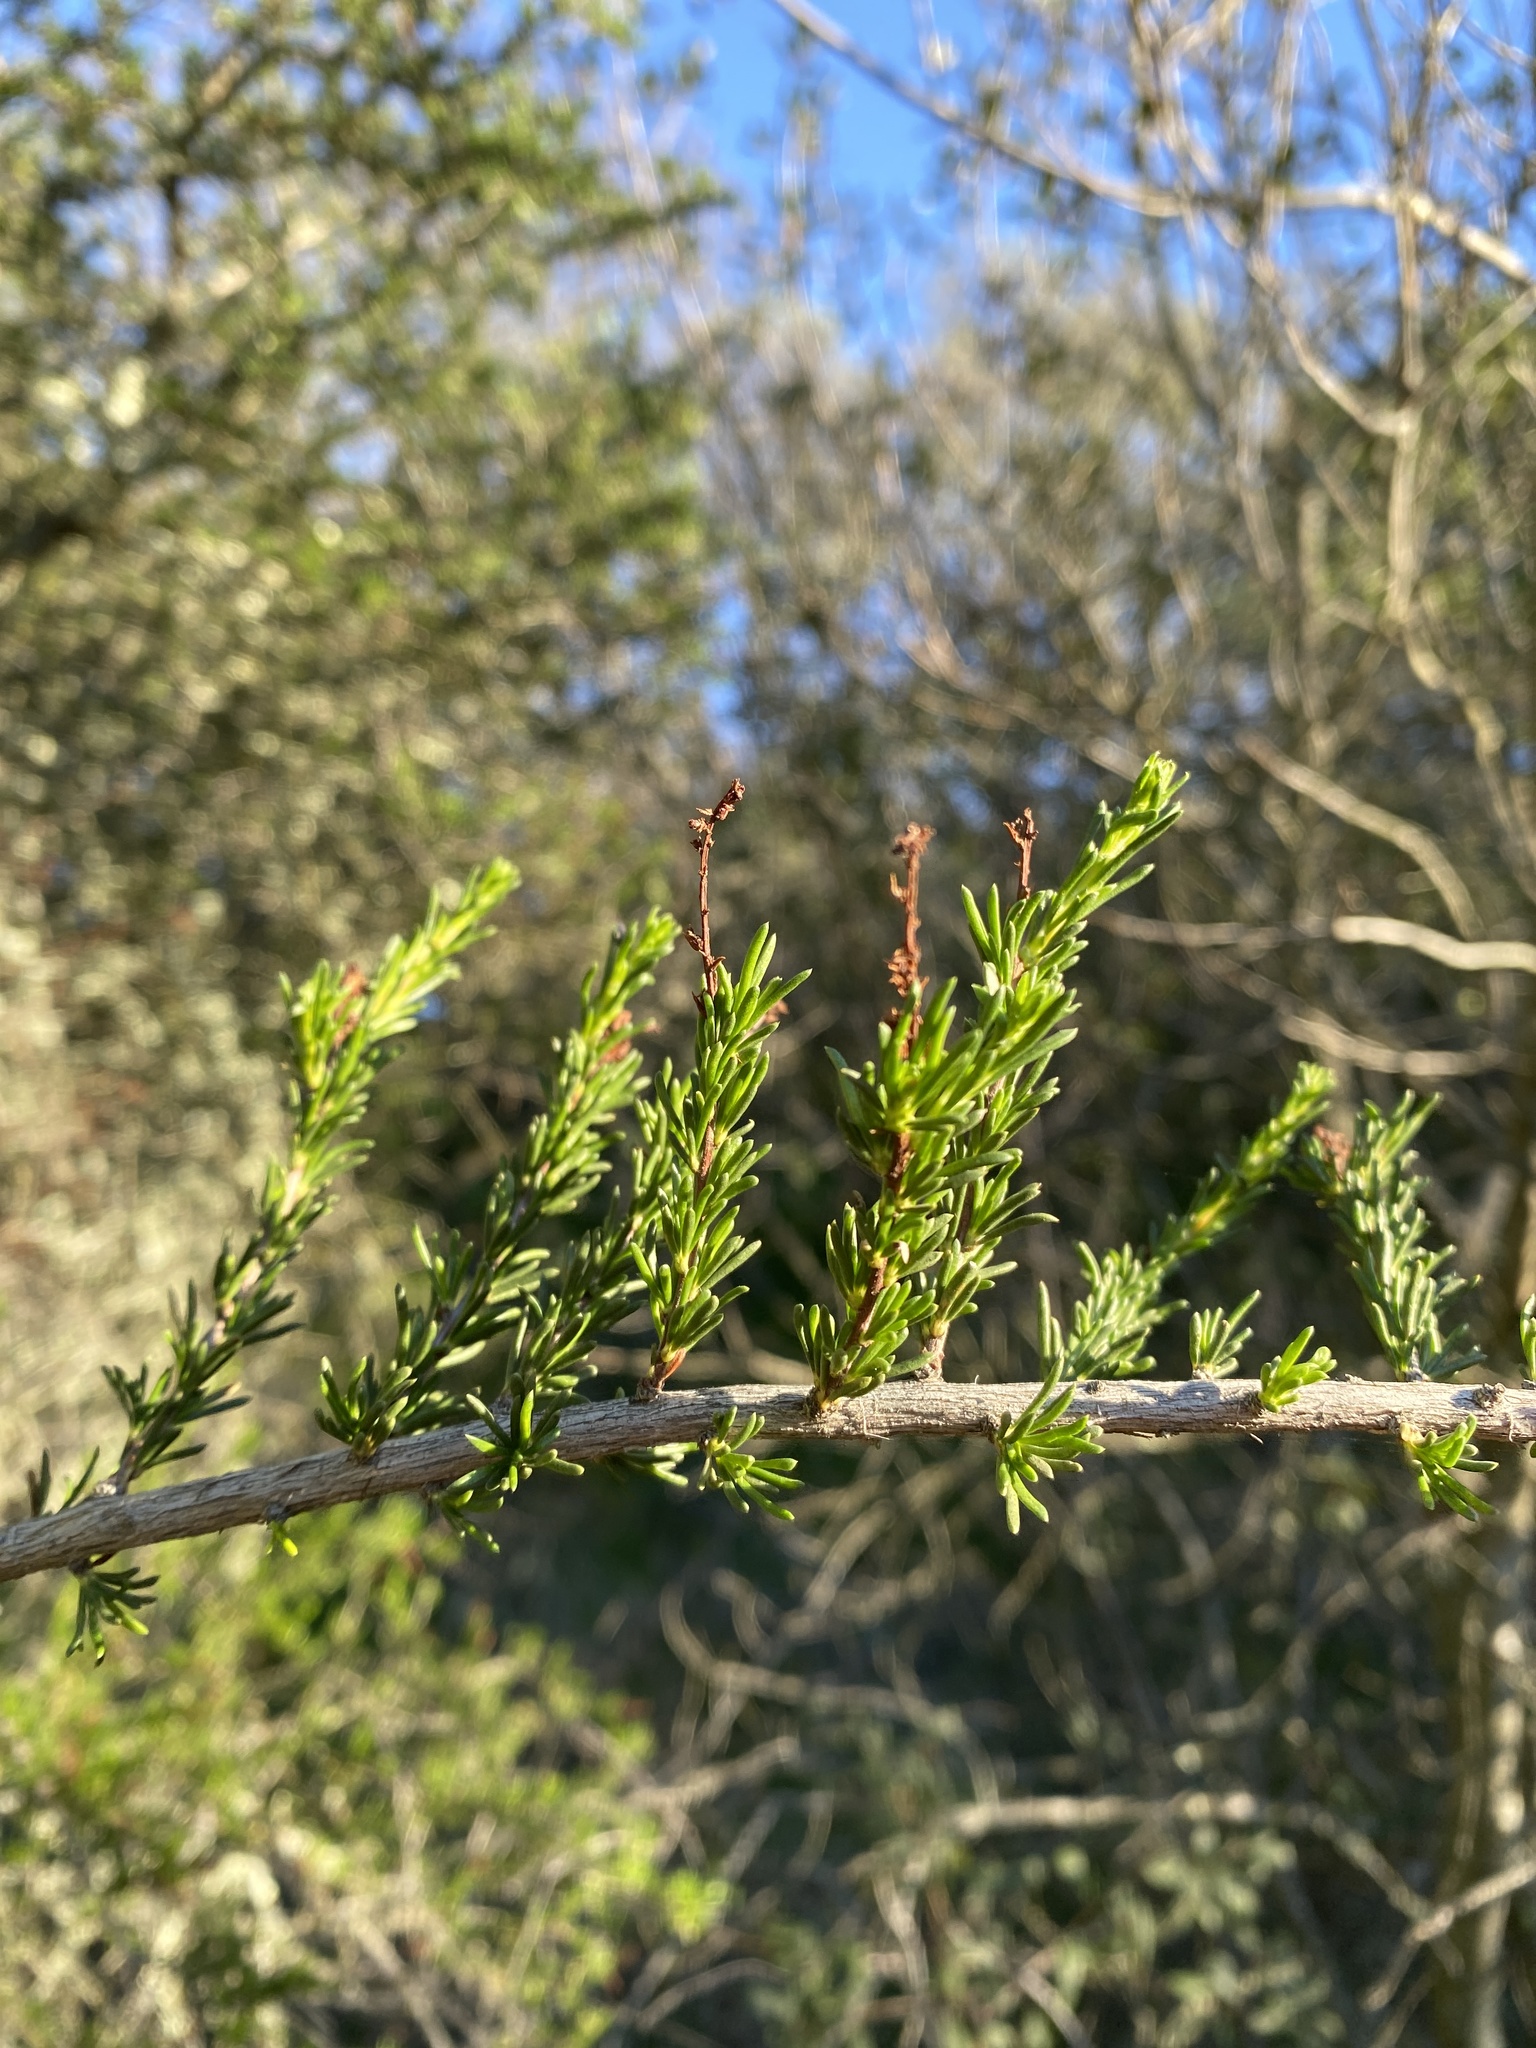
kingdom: Plantae
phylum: Tracheophyta
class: Magnoliopsida
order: Rosales
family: Rosaceae
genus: Adenostoma
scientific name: Adenostoma fasciculatum
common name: Chamise
